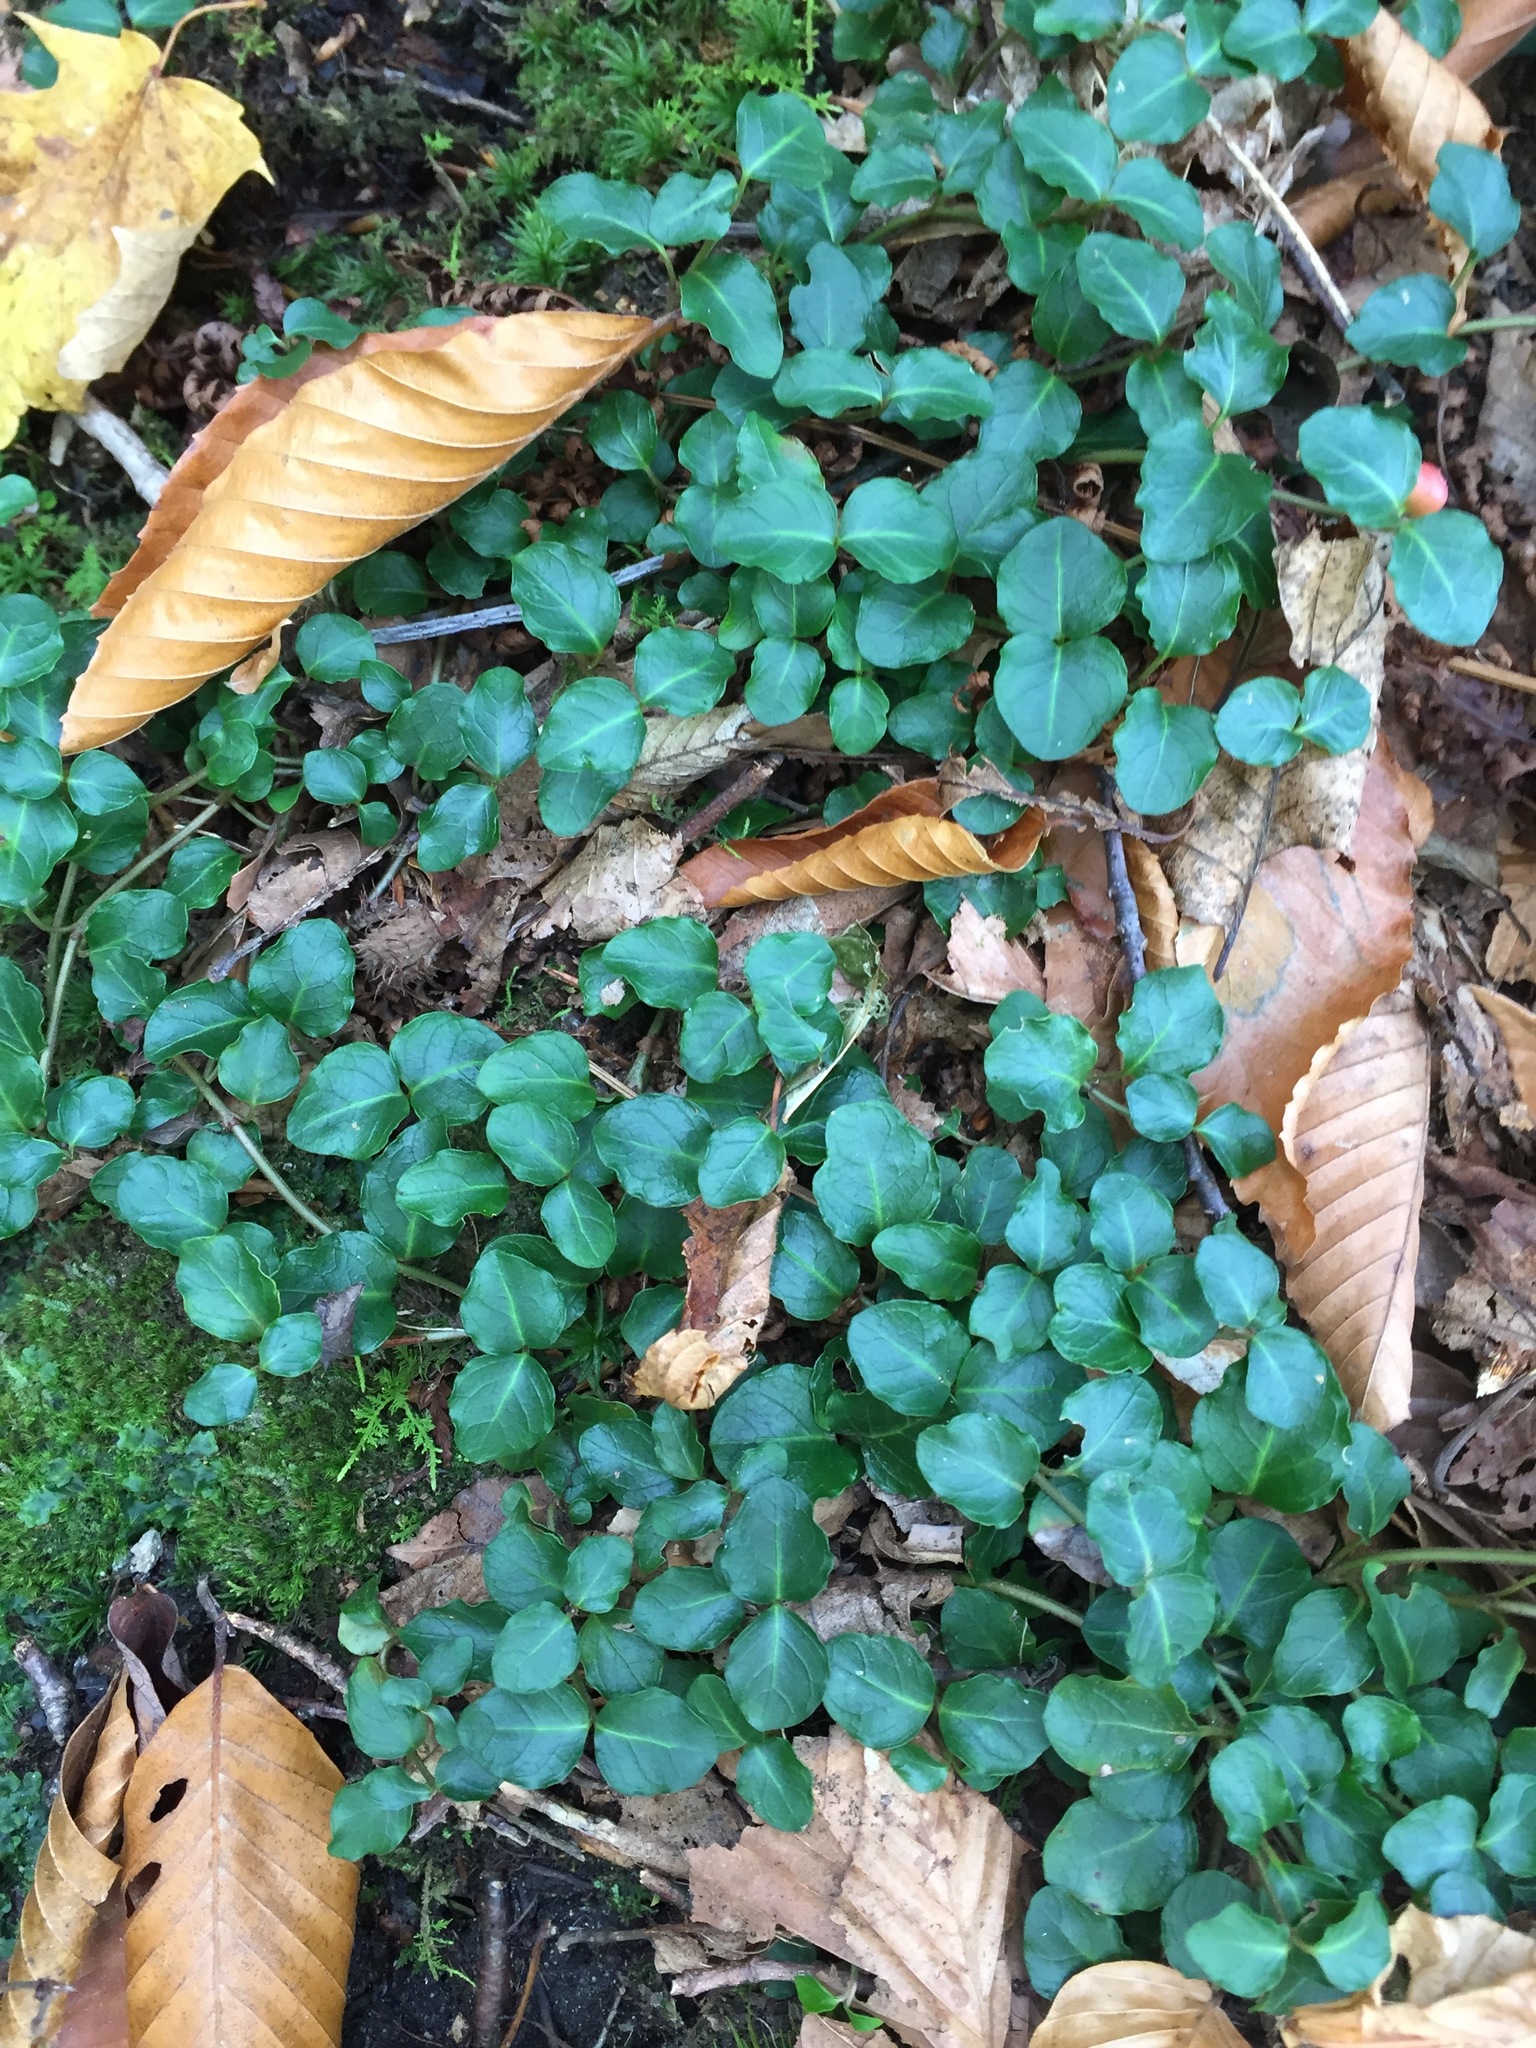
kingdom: Plantae
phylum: Tracheophyta
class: Magnoliopsida
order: Gentianales
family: Rubiaceae
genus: Mitchella
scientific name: Mitchella repens
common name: Partridge-berry
